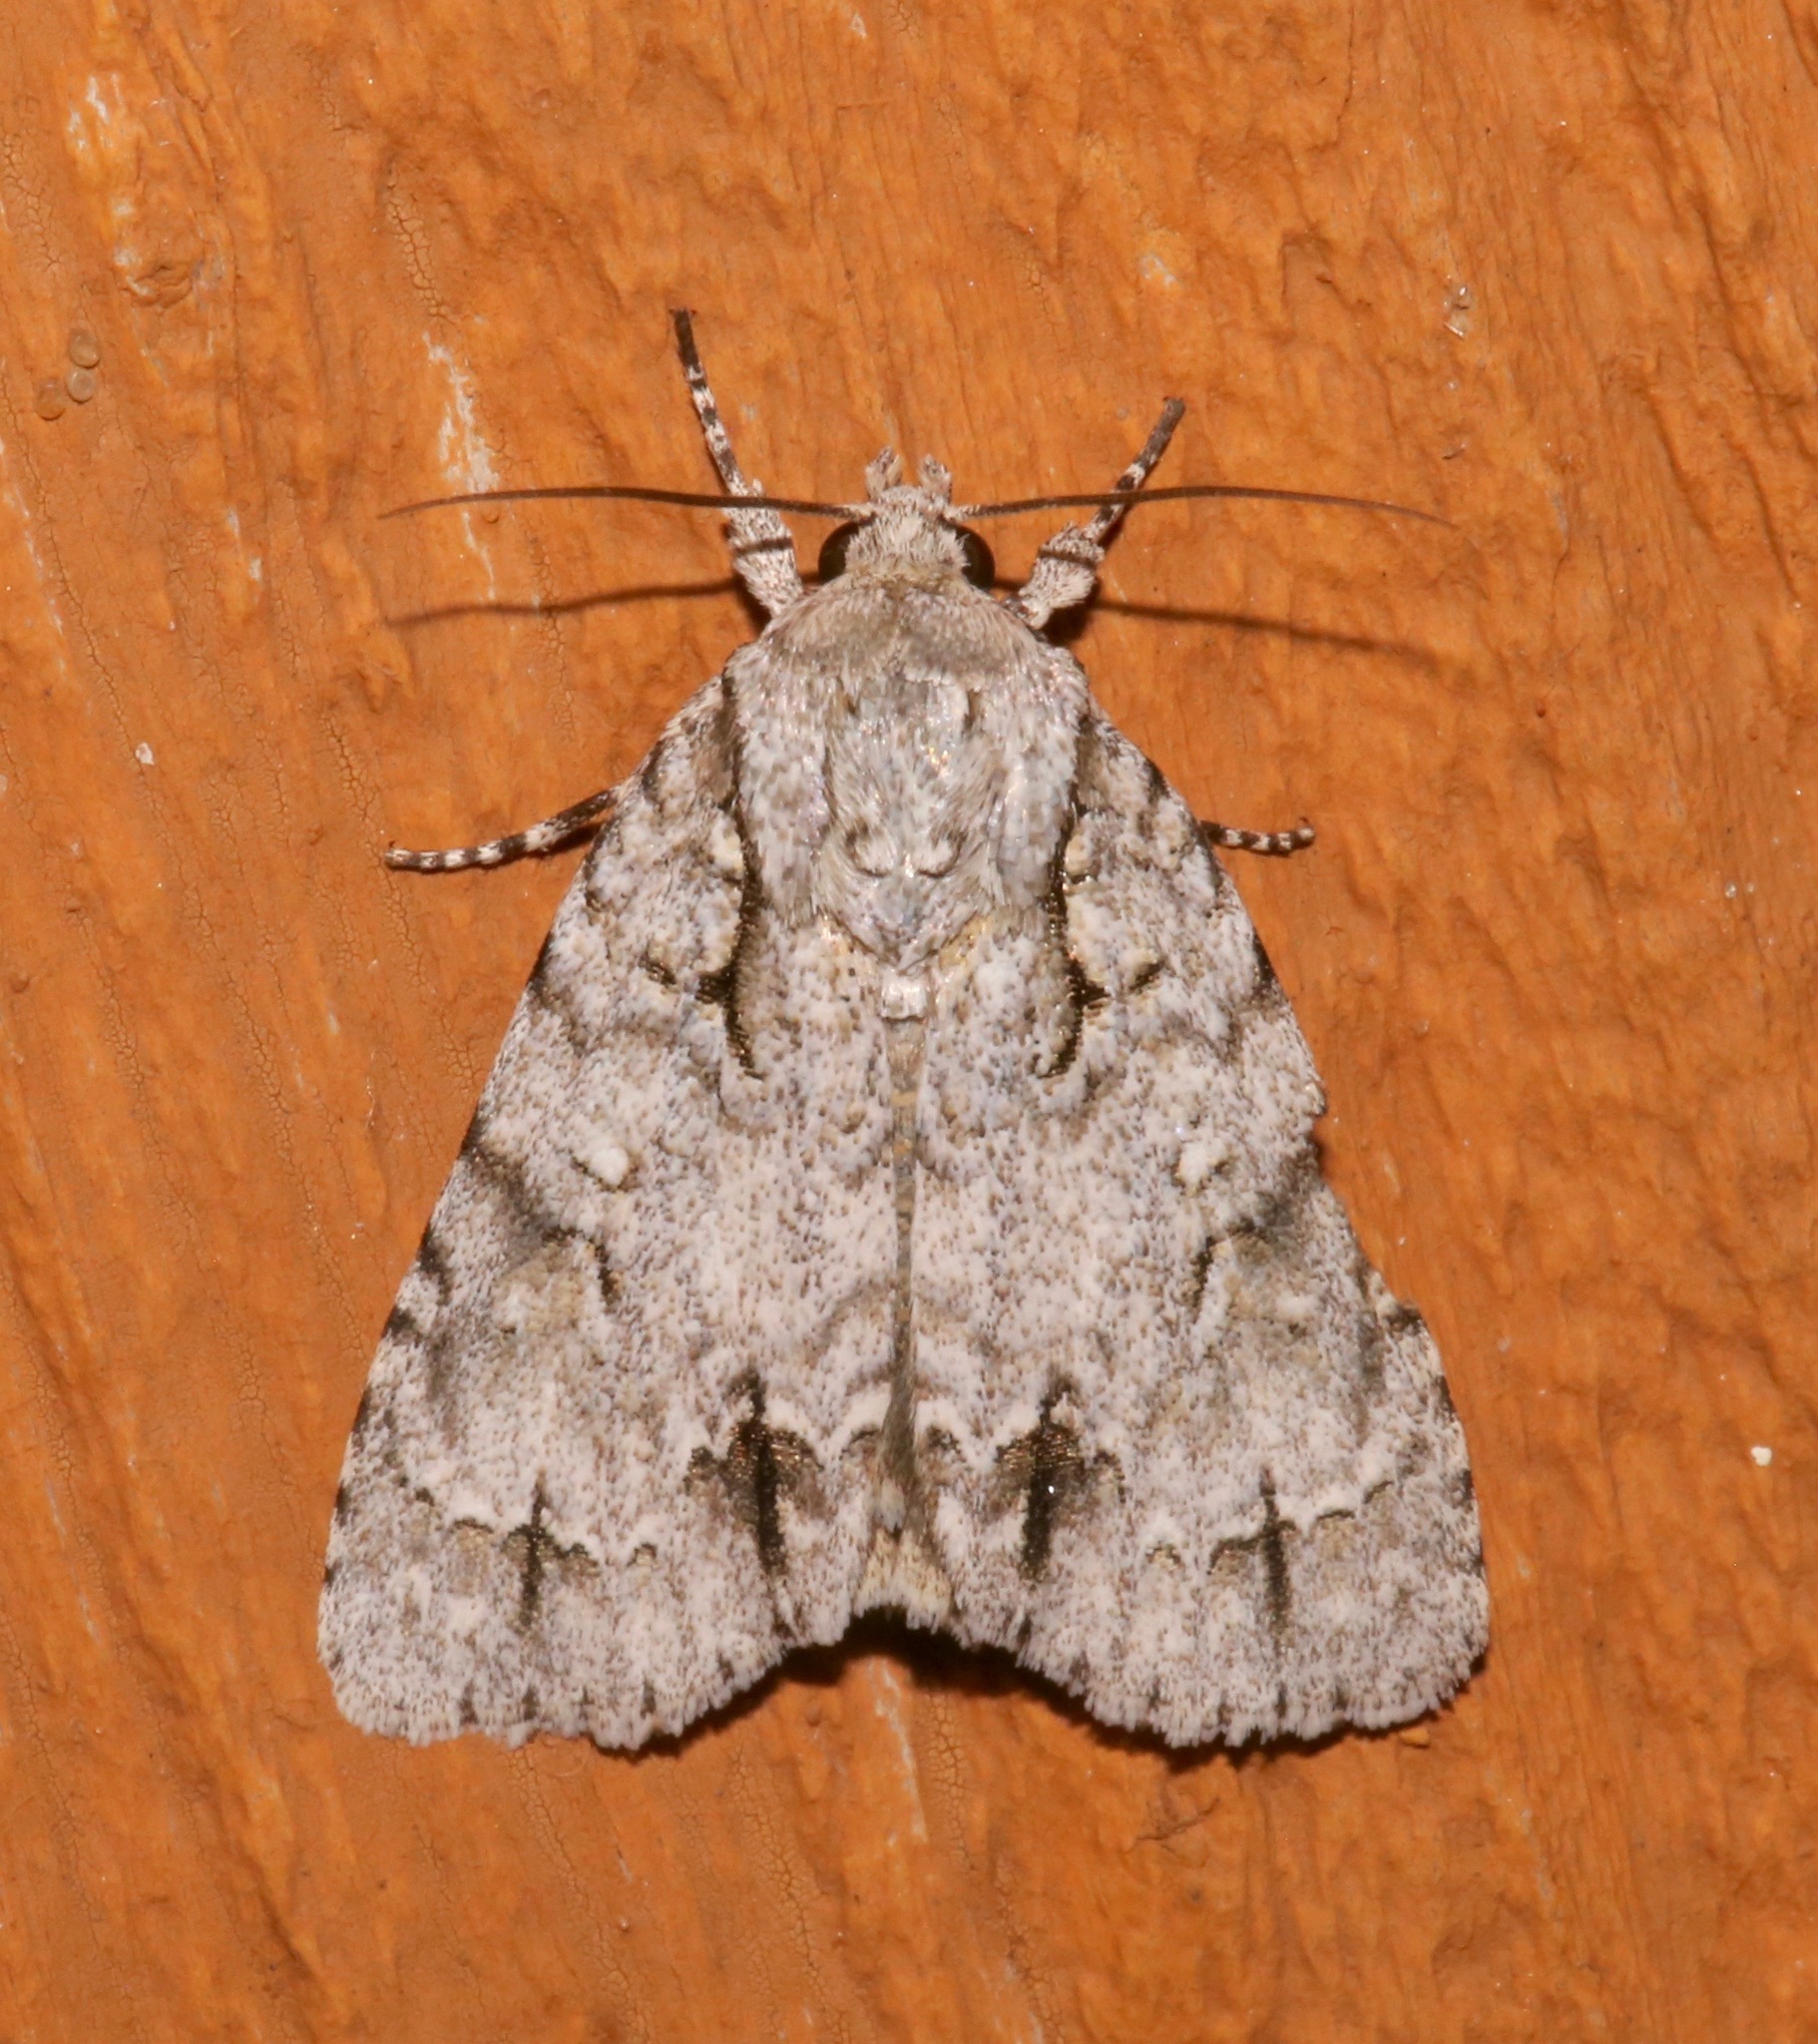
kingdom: Animalia
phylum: Arthropoda
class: Insecta
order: Lepidoptera
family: Noctuidae
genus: Acronicta
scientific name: Acronicta laetifica
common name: Pleasant dagger
